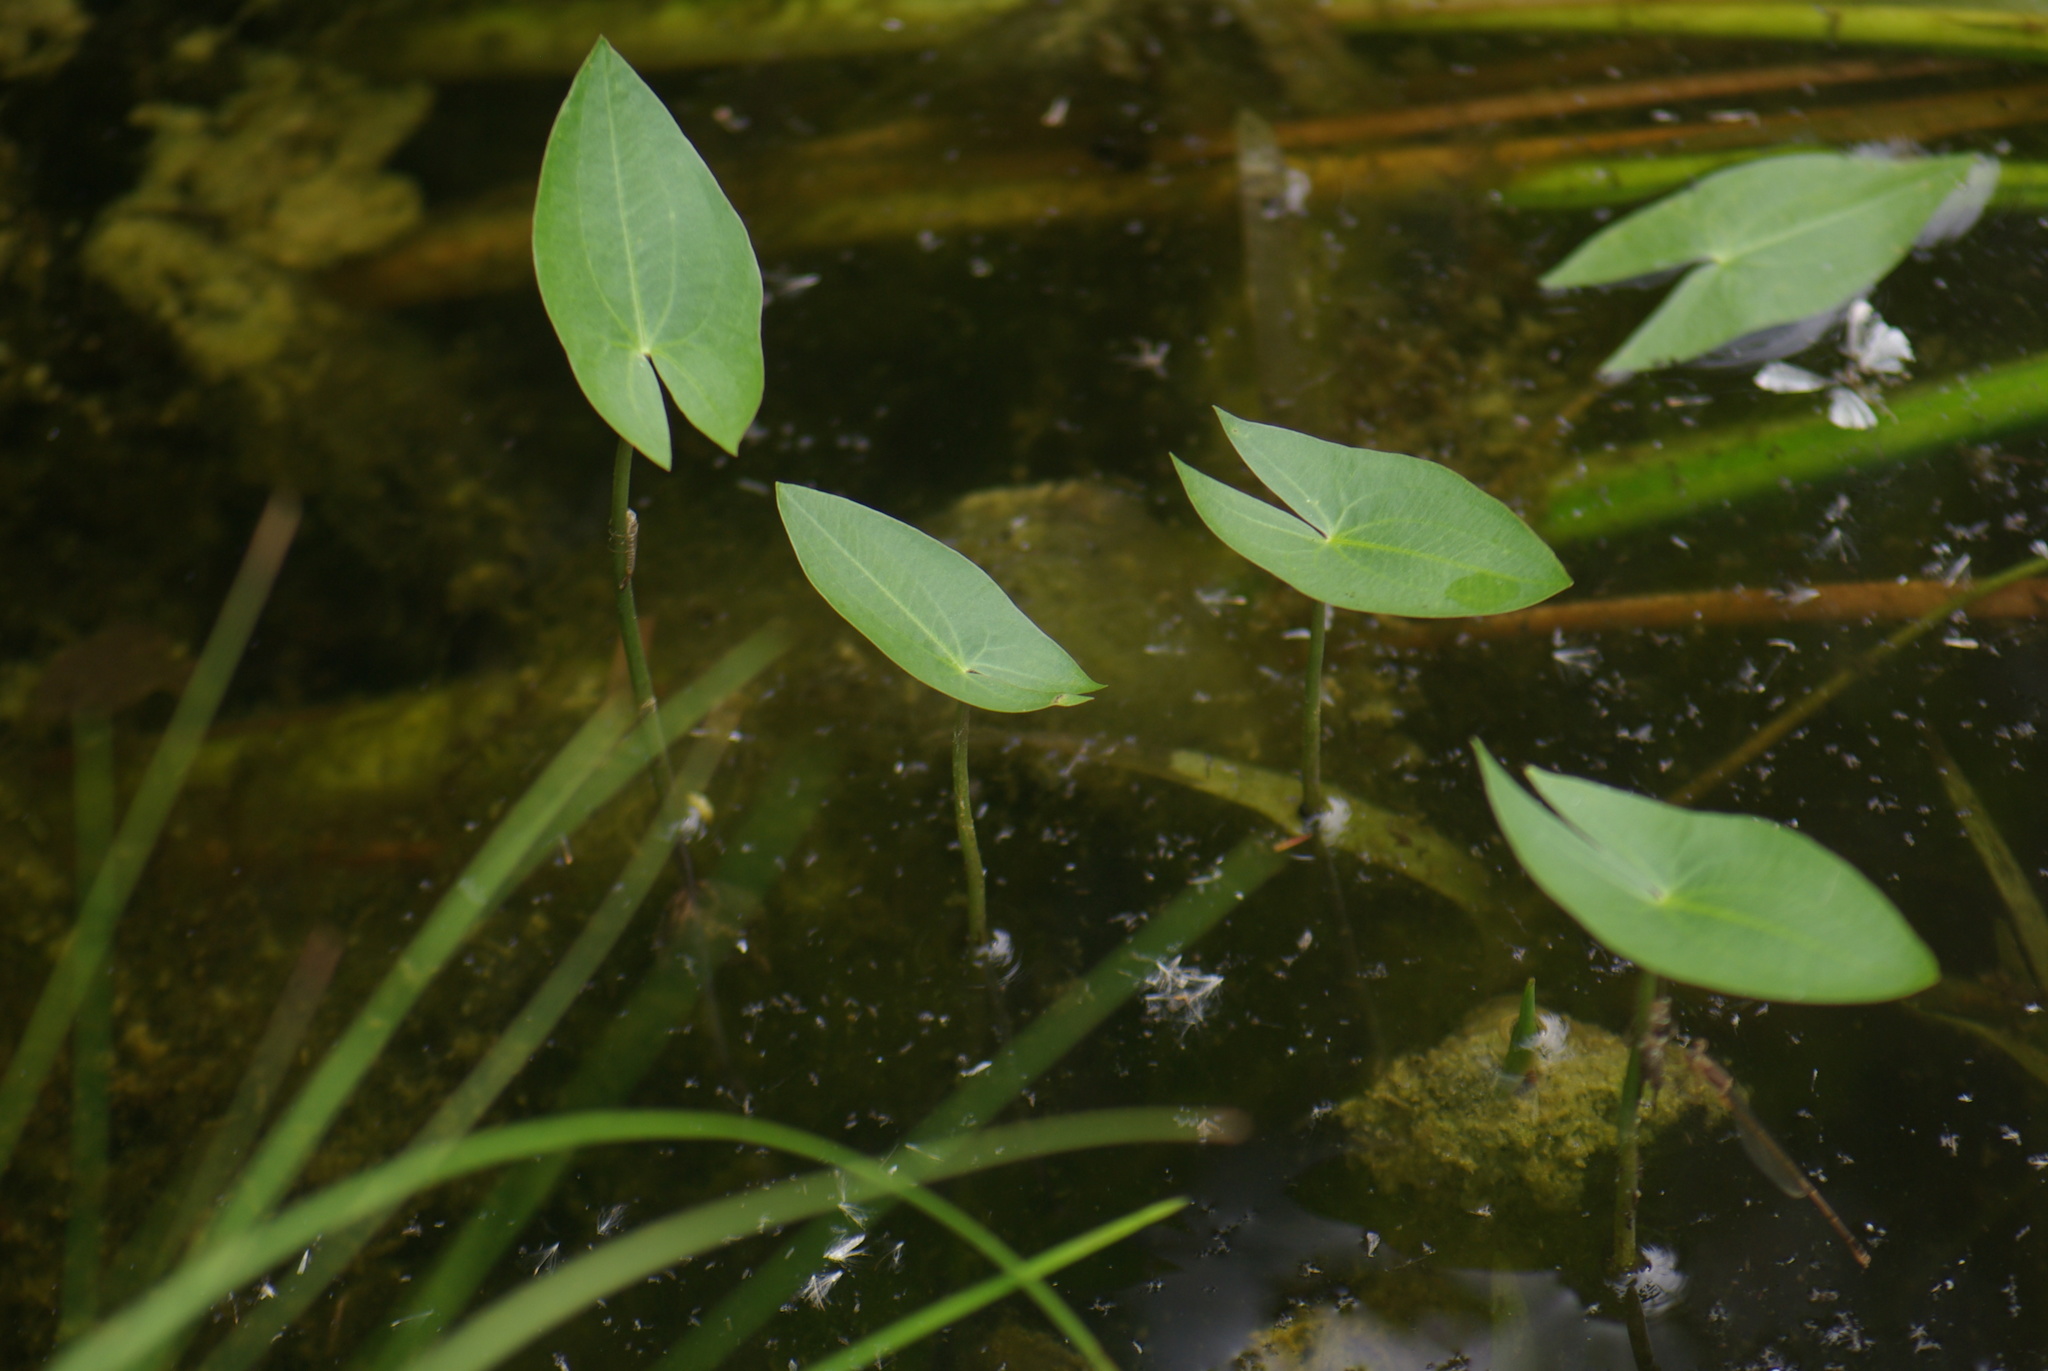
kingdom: Plantae
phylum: Tracheophyta
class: Liliopsida
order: Alismatales
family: Alismataceae
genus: Sagittaria
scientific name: Sagittaria cuneata
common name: Northern arrowhead
